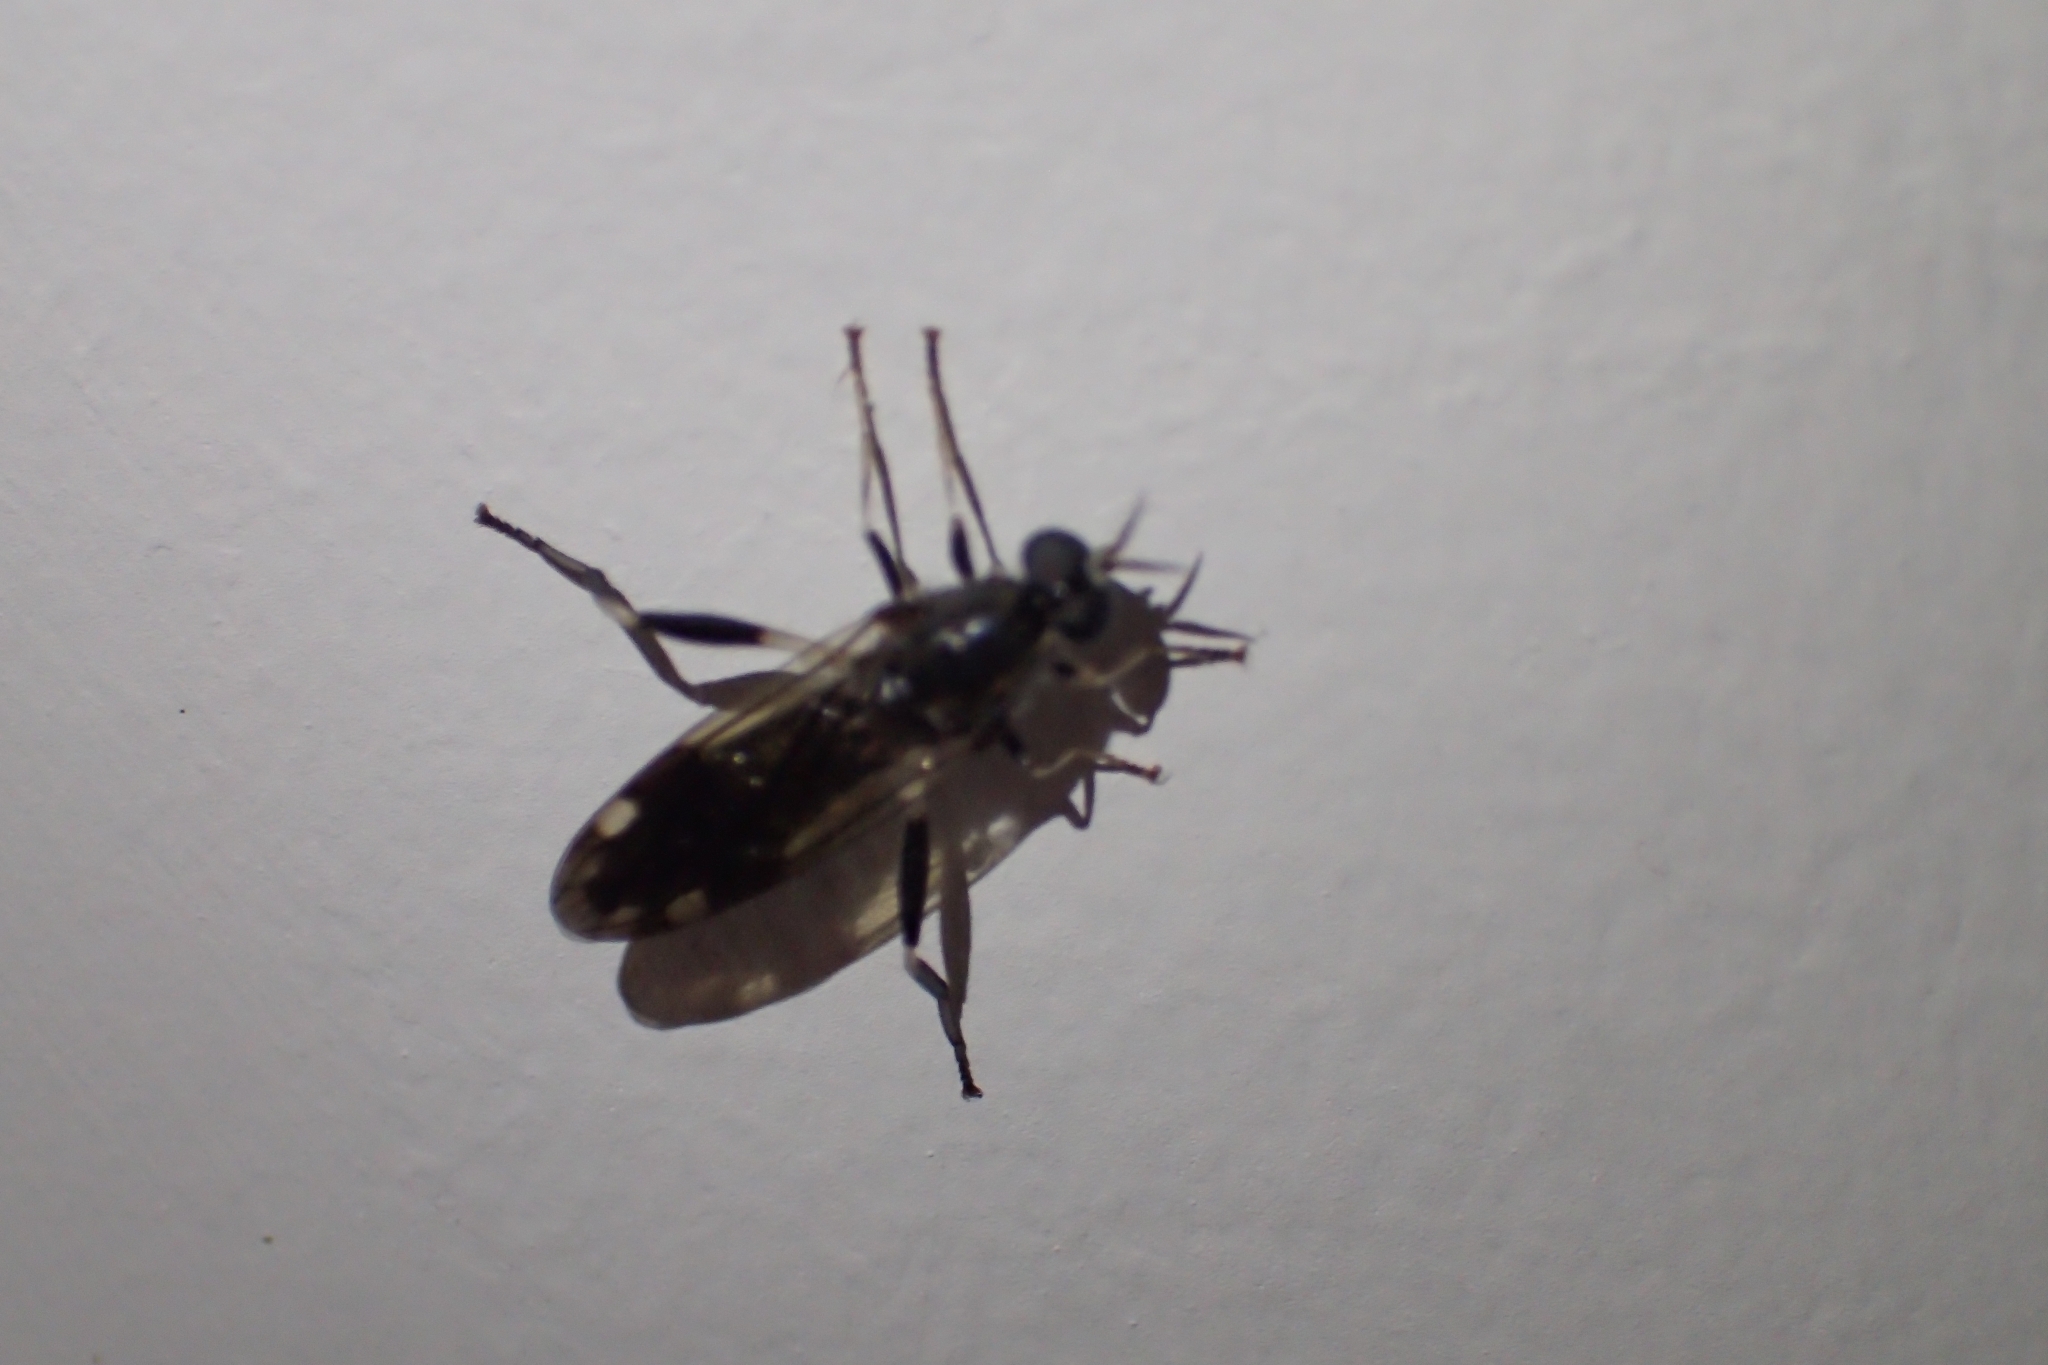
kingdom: Animalia
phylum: Arthropoda
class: Insecta
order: Diptera
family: Stratiomyidae
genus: Exaireta
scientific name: Exaireta spinigera
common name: Blue soldier fly
